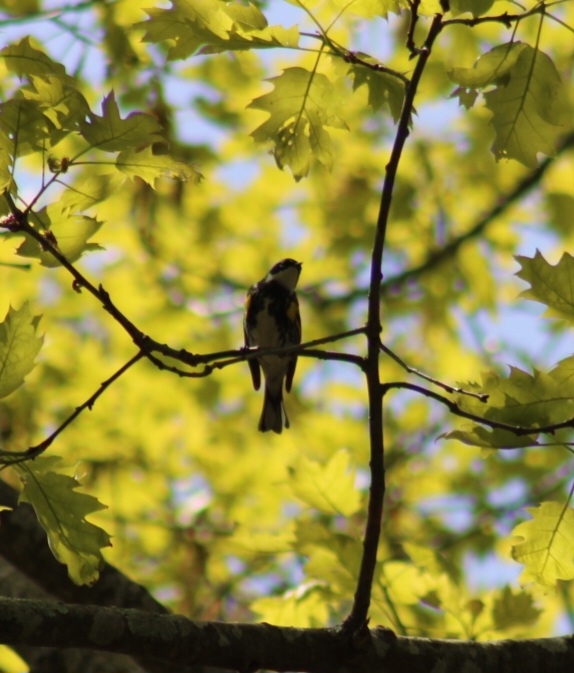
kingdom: Animalia
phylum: Chordata
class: Aves
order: Passeriformes
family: Parulidae
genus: Setophaga
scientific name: Setophaga coronata
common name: Myrtle warbler
